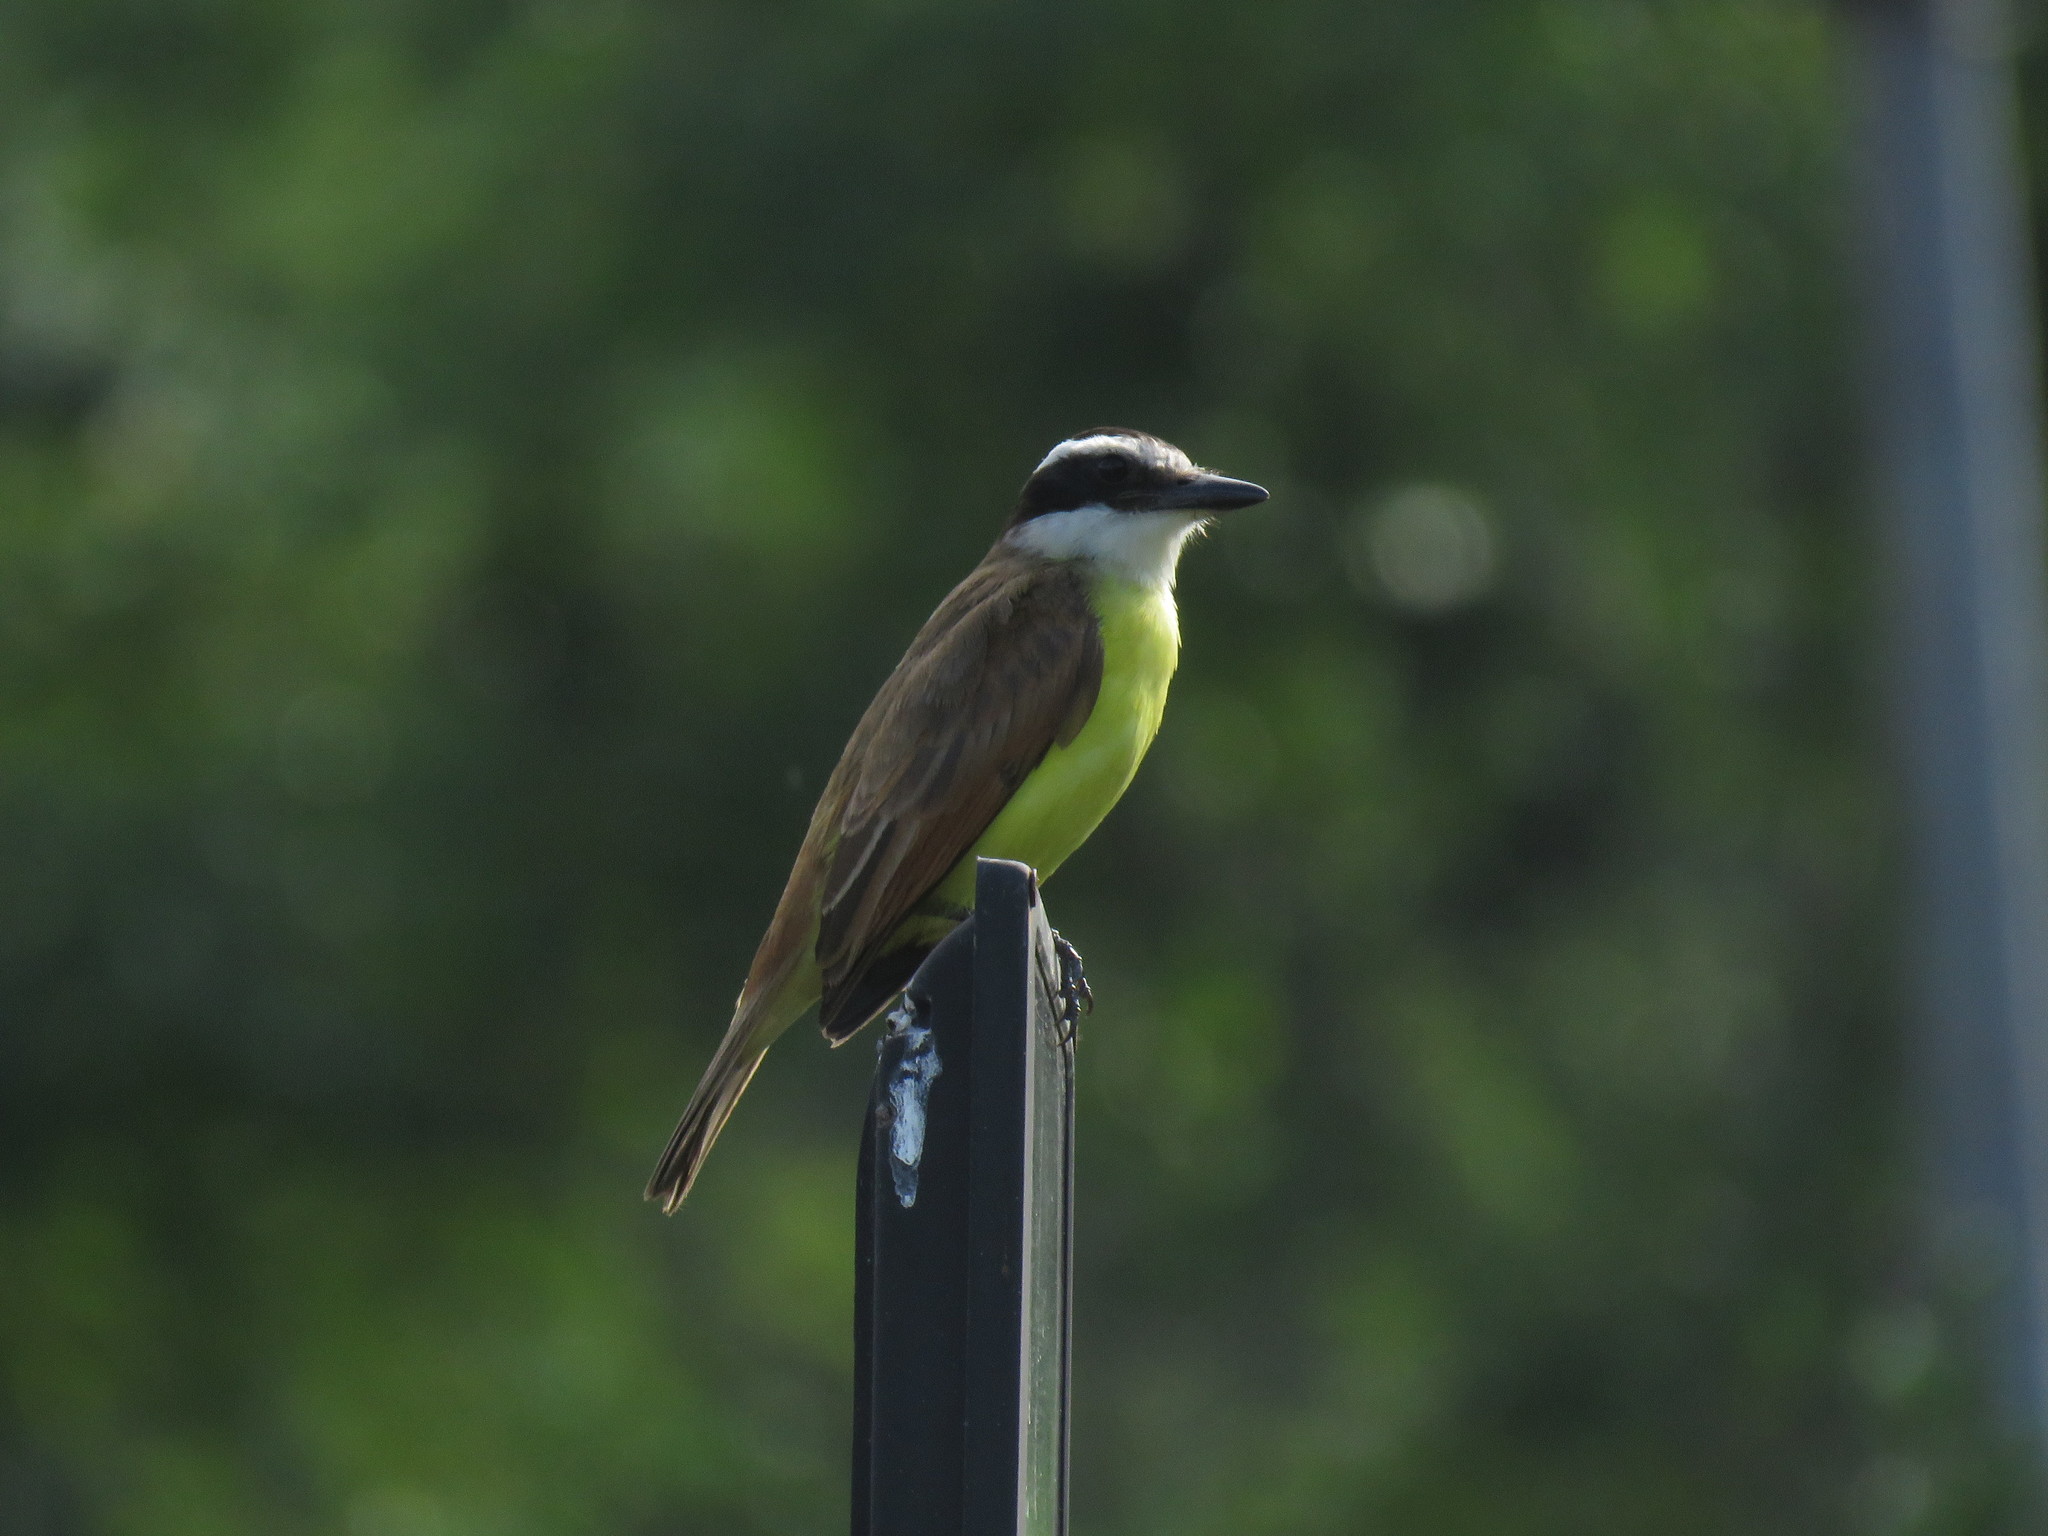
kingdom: Animalia
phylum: Chordata
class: Aves
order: Passeriformes
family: Tyrannidae
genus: Pitangus
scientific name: Pitangus sulphuratus
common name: Great kiskadee
